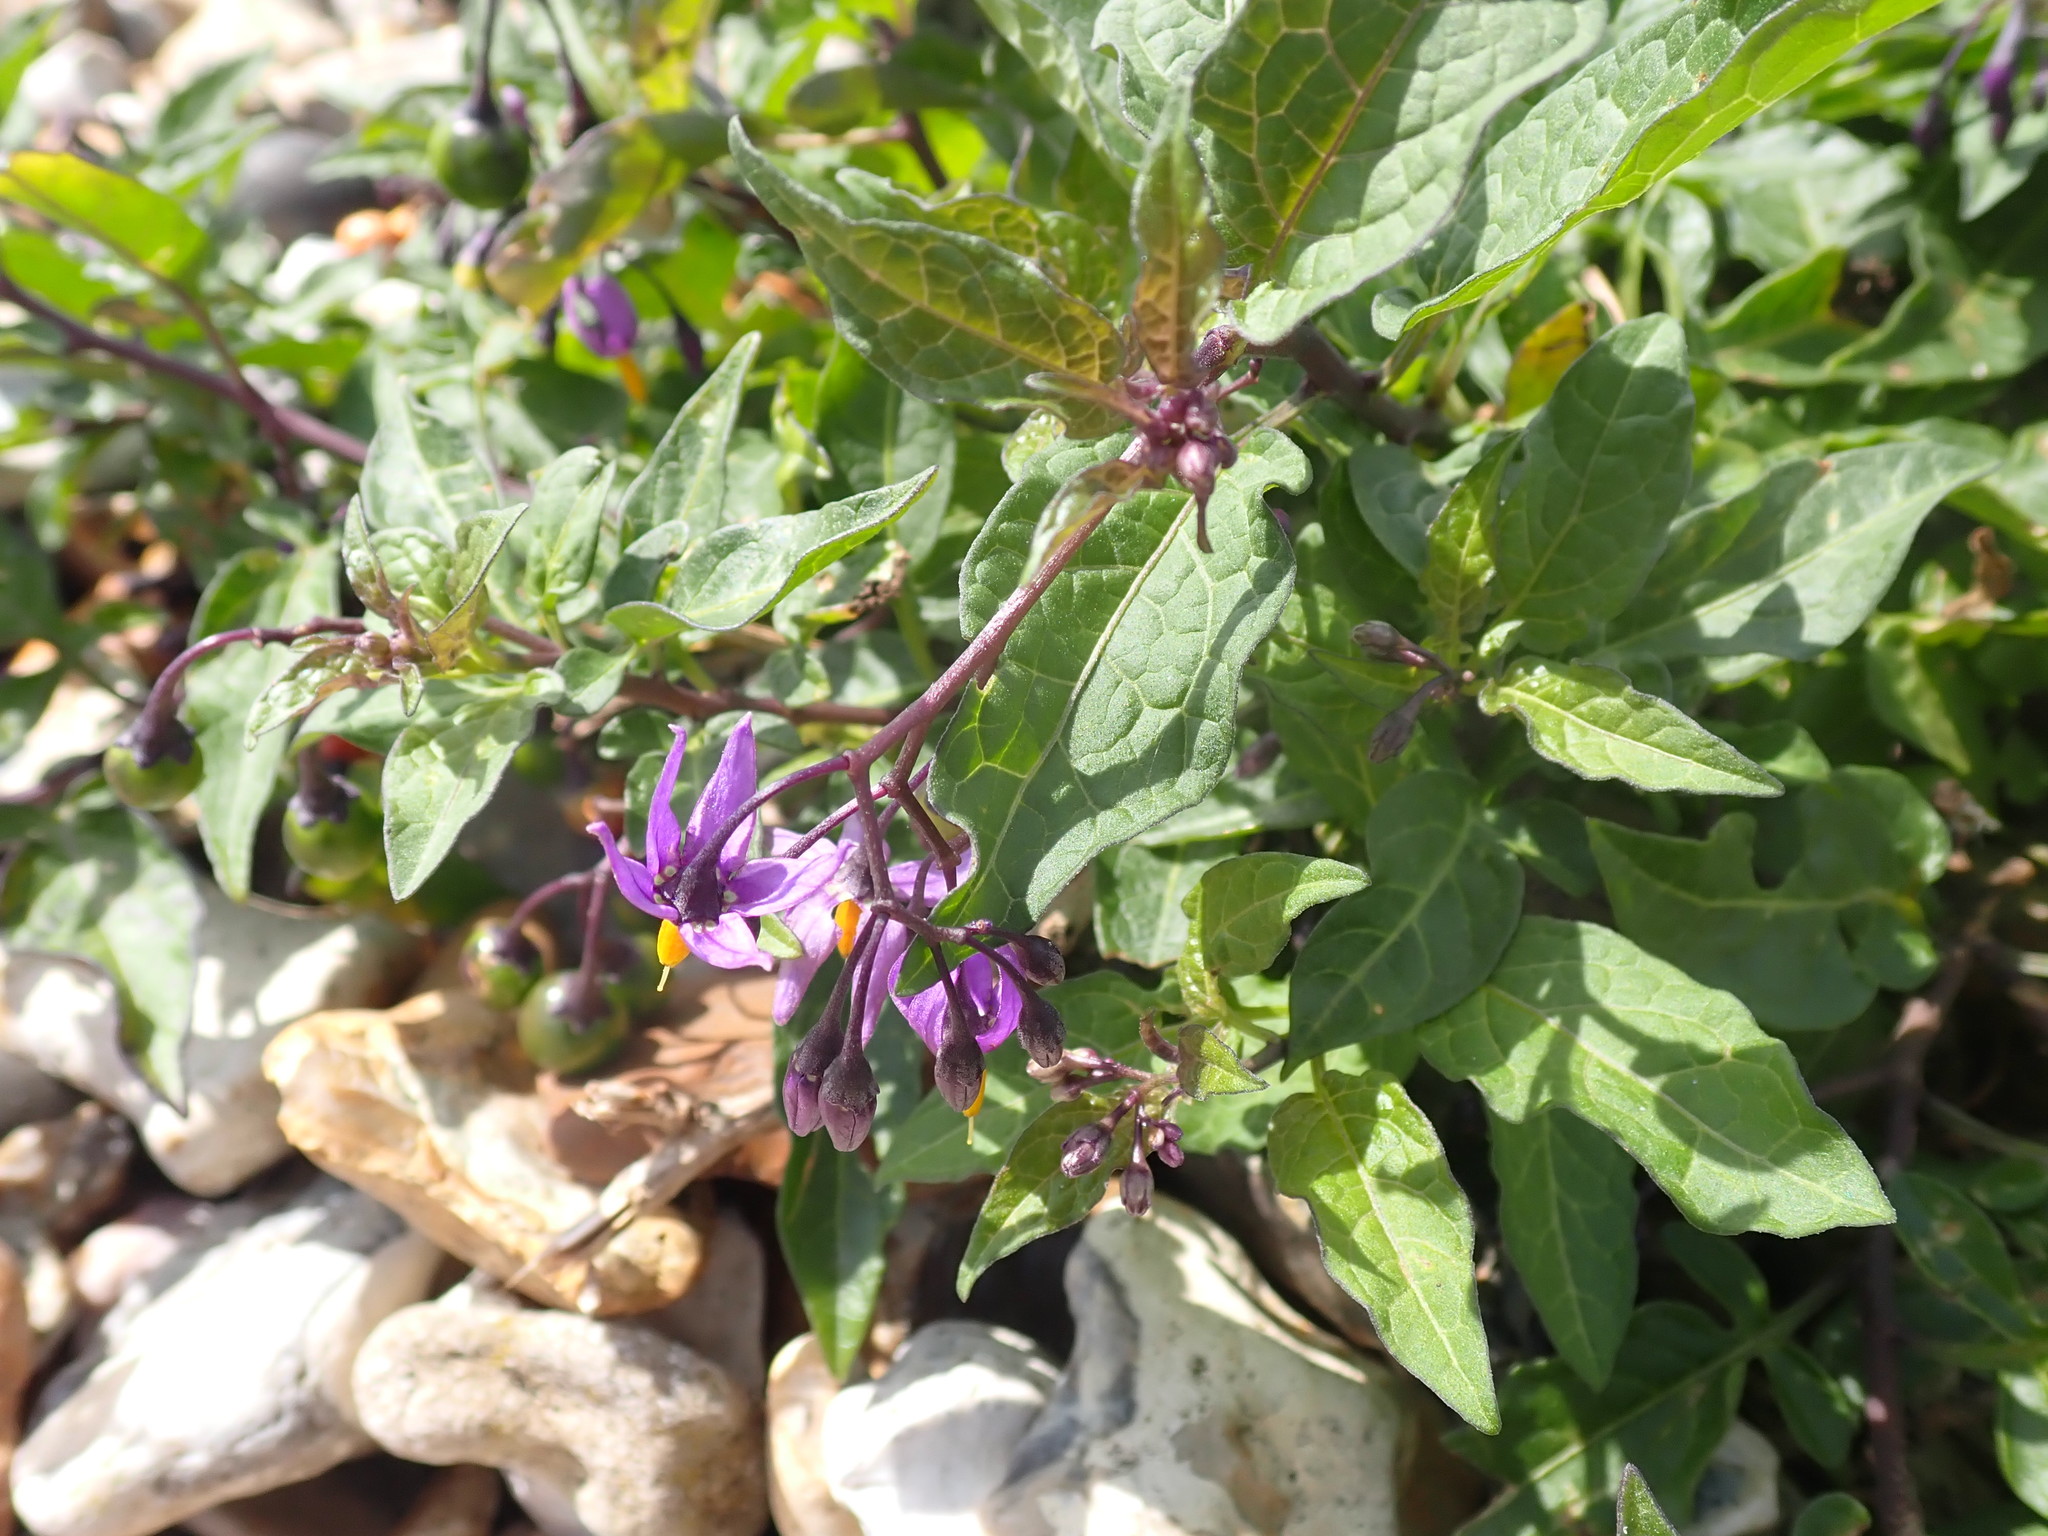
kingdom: Plantae
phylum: Tracheophyta
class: Magnoliopsida
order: Solanales
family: Solanaceae
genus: Solanum
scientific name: Solanum dulcamara
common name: Climbing nightshade
